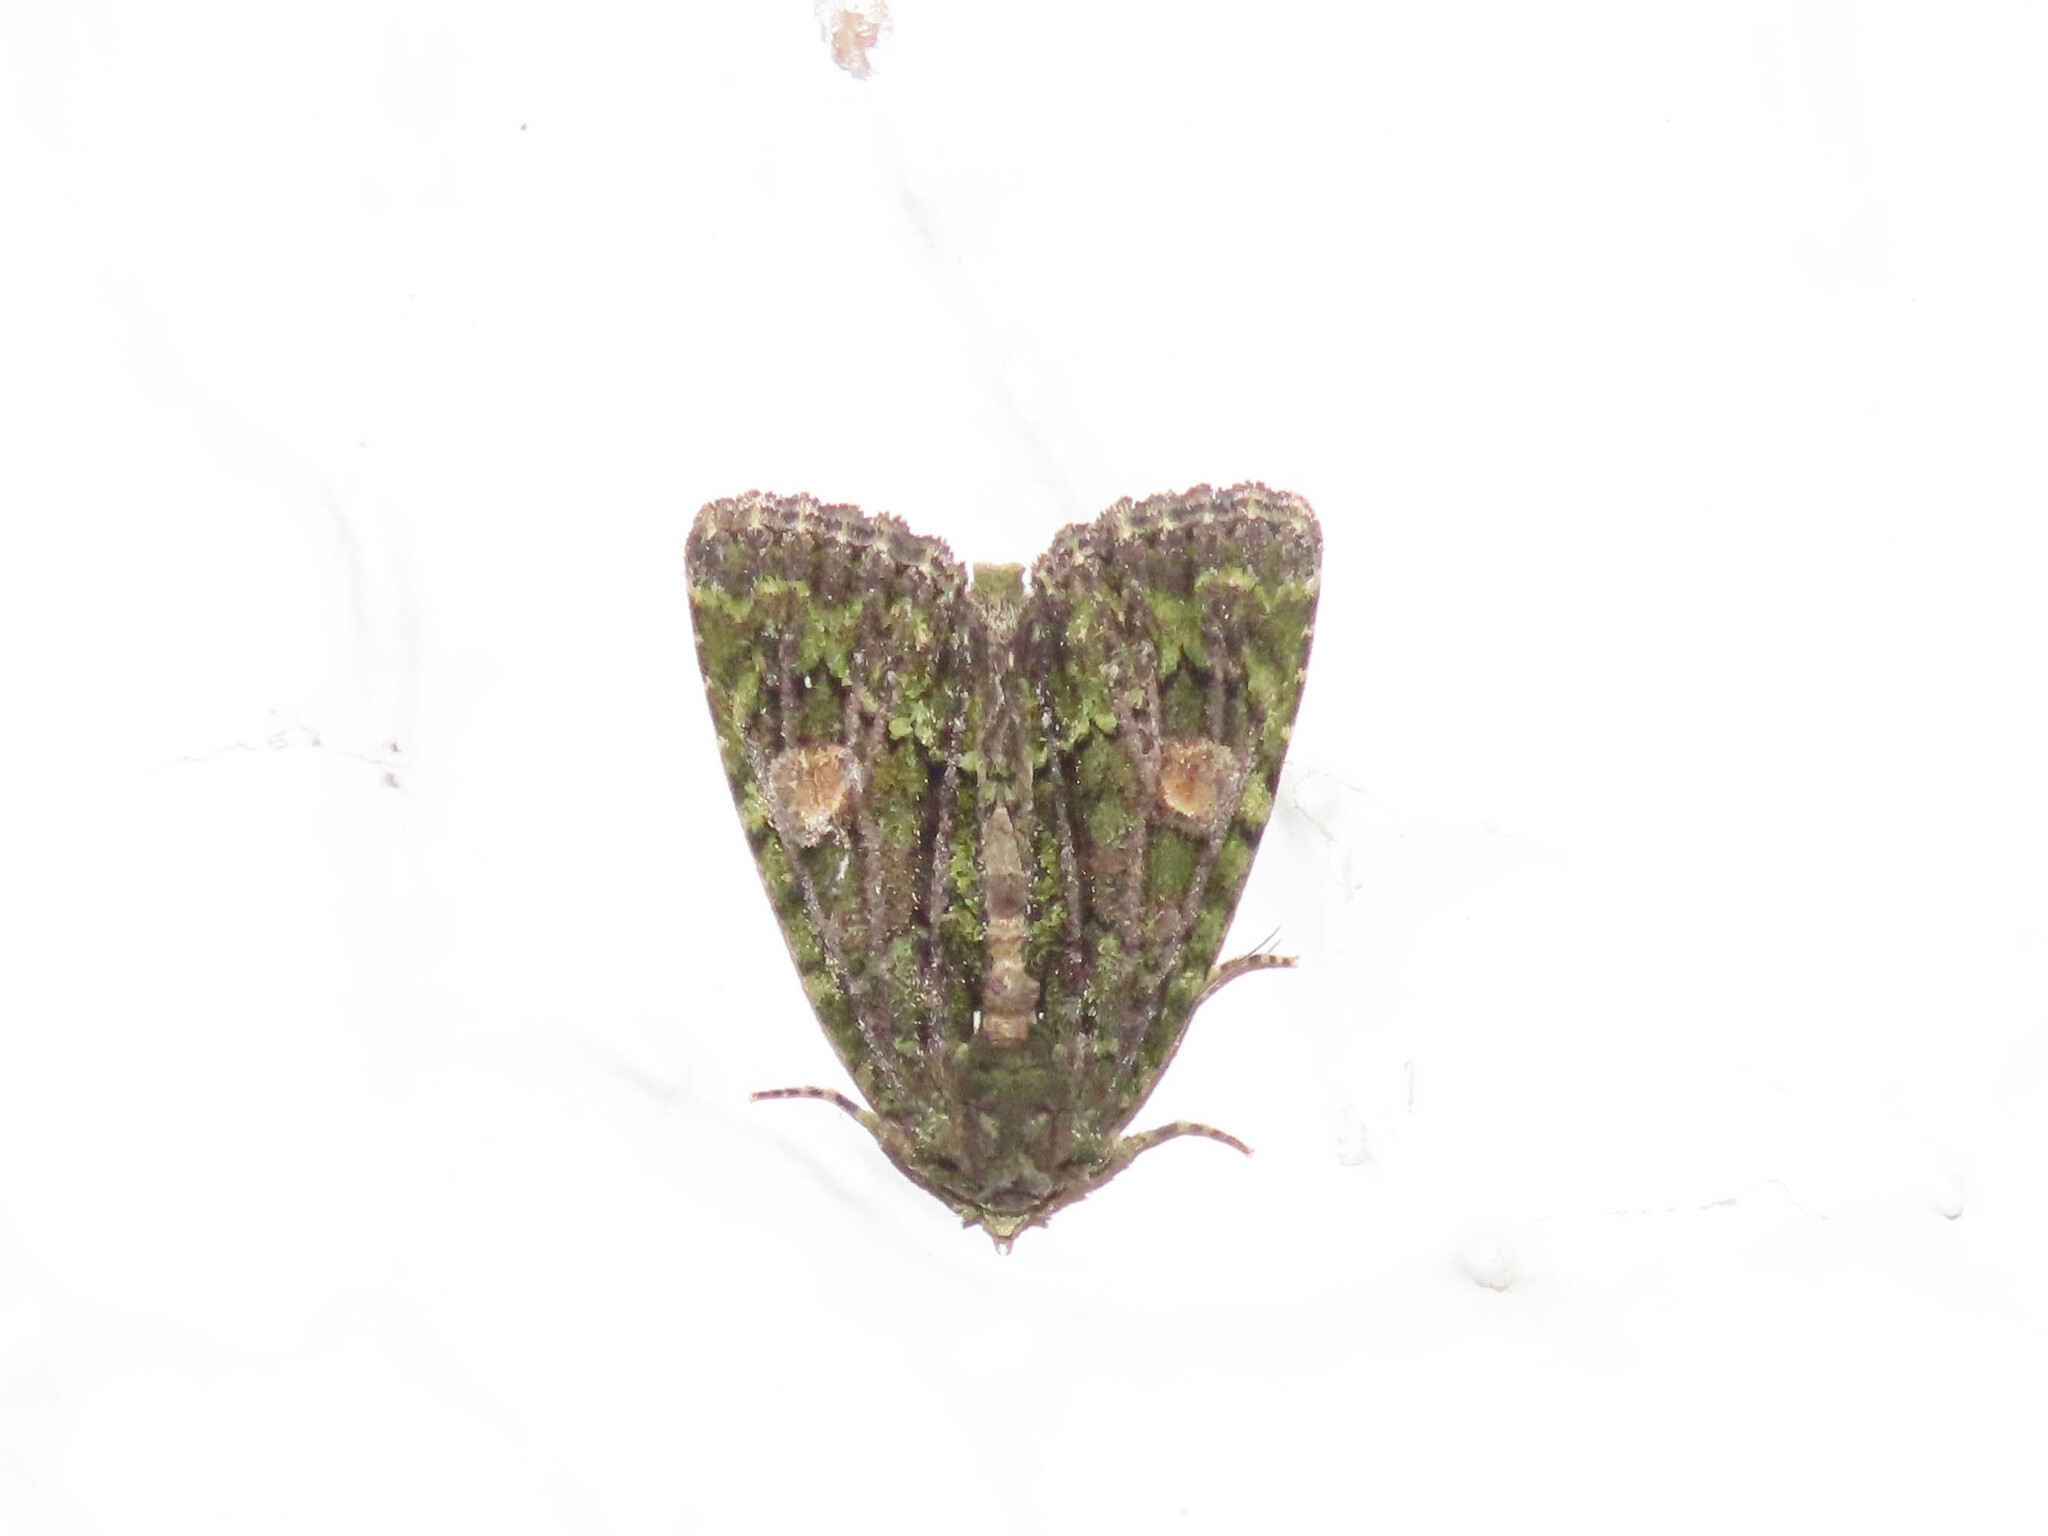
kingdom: Animalia
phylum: Arthropoda
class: Insecta
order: Lepidoptera
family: Noctuidae
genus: Phosphila
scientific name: Phosphila miselioides
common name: Spotted phosphila moth
